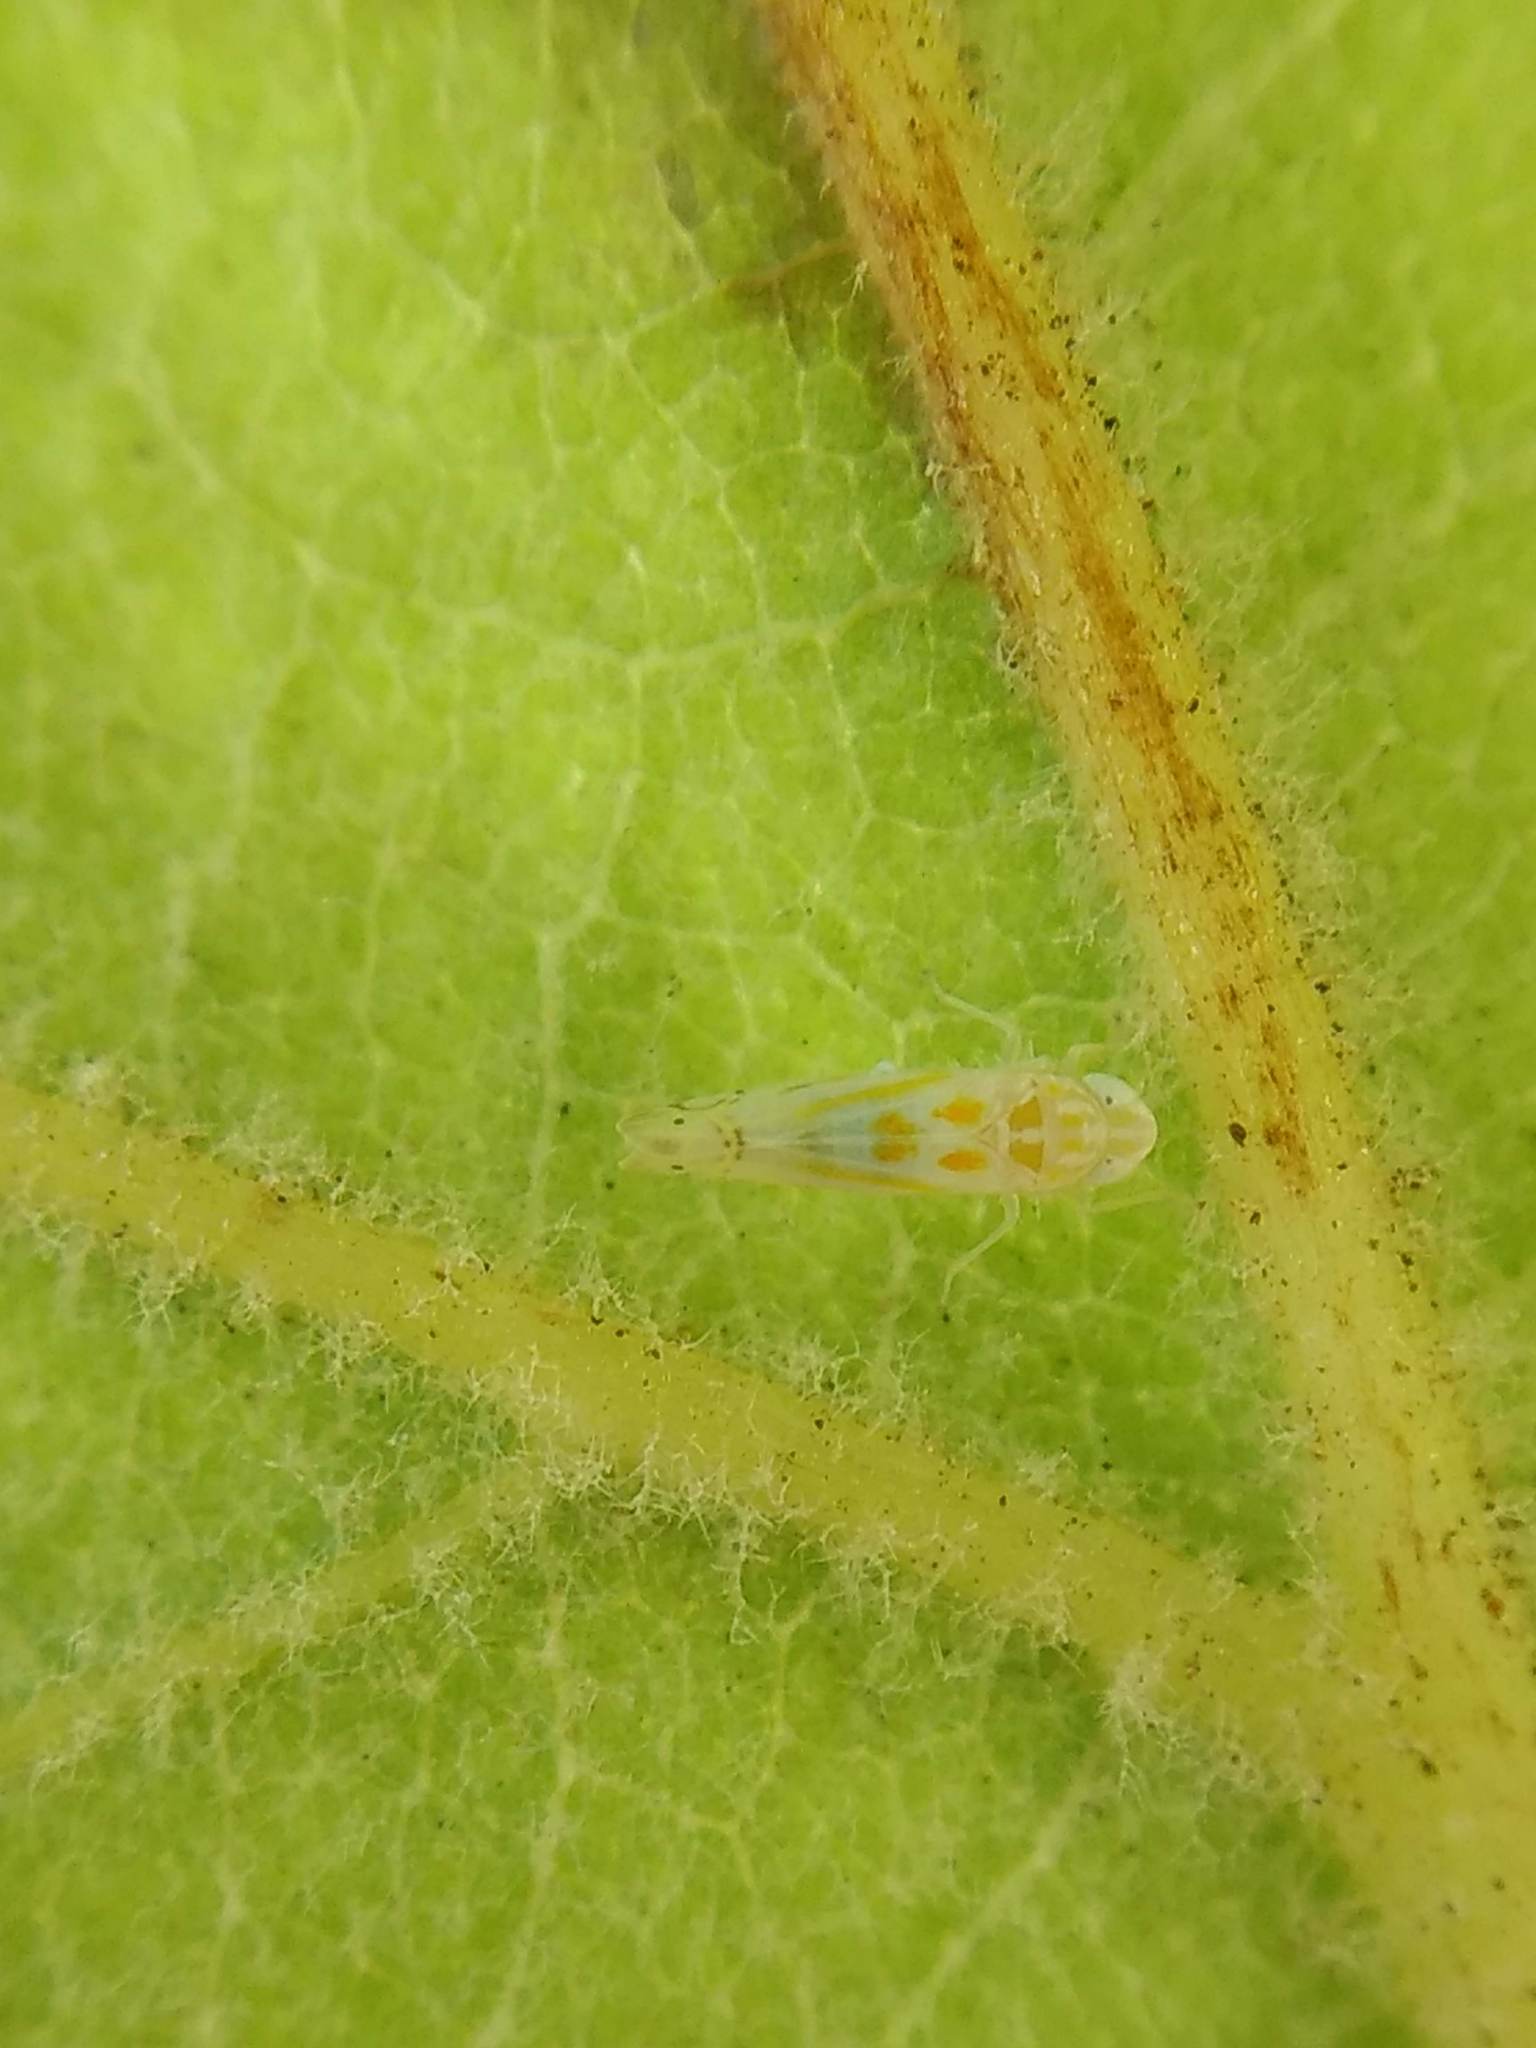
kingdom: Animalia
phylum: Arthropoda
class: Insecta
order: Hemiptera
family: Cicadellidae
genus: Alconeura
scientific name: Alconeura quadrimaculata
